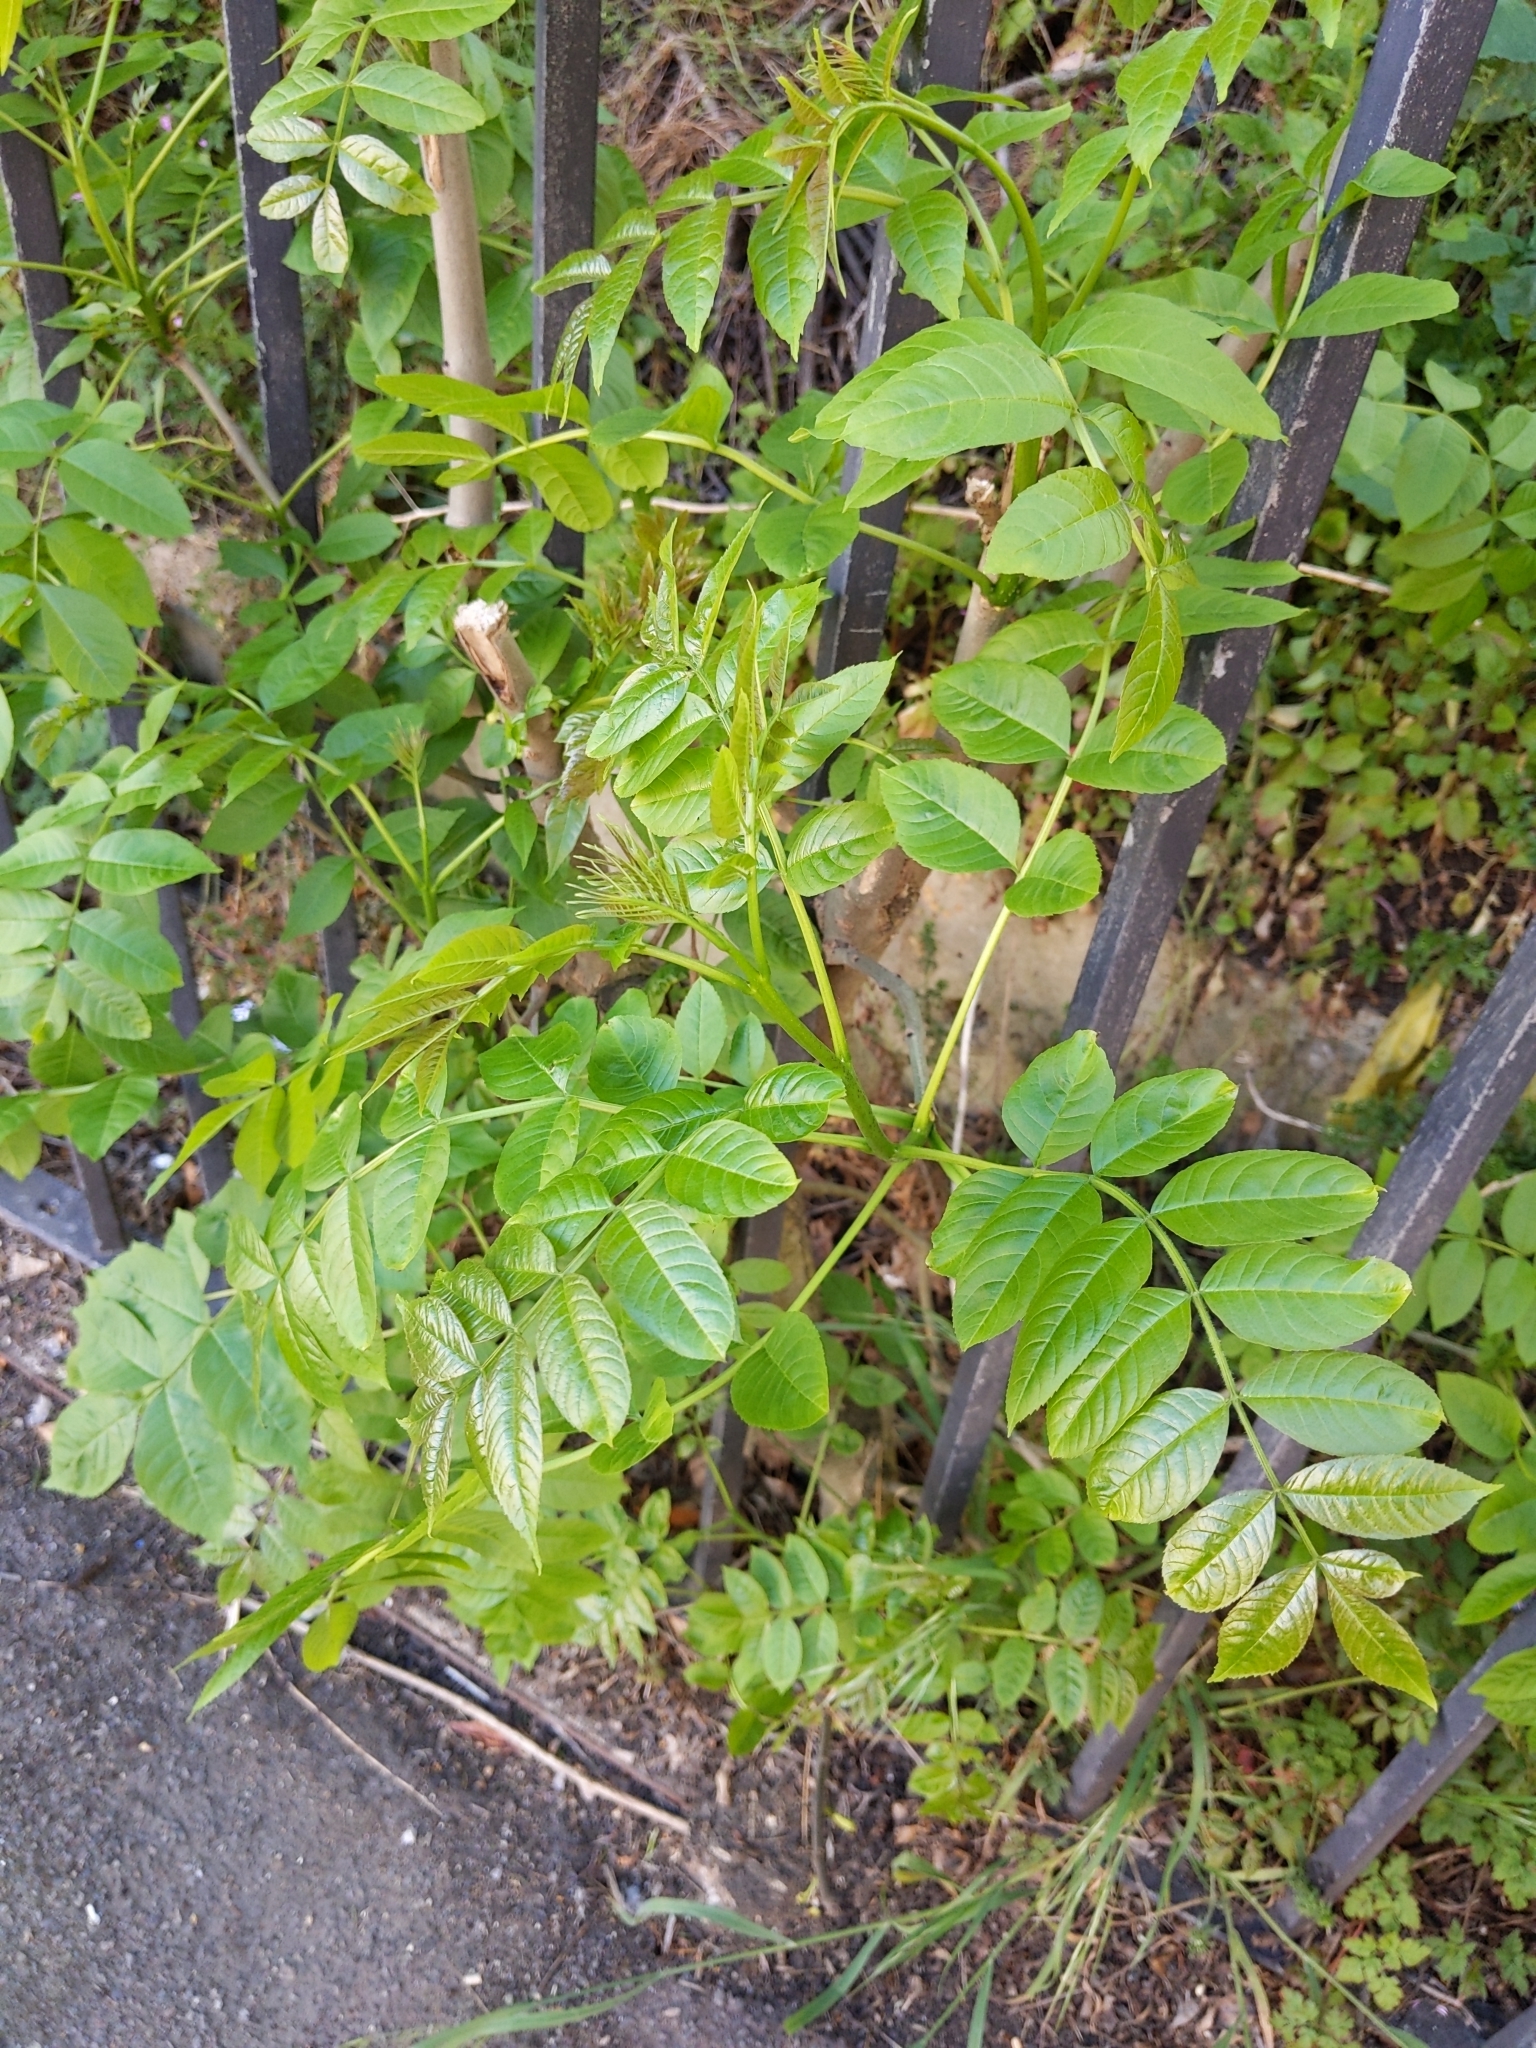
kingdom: Plantae
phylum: Tracheophyta
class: Magnoliopsida
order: Lamiales
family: Oleaceae
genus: Fraxinus
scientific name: Fraxinus excelsior
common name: European ash
